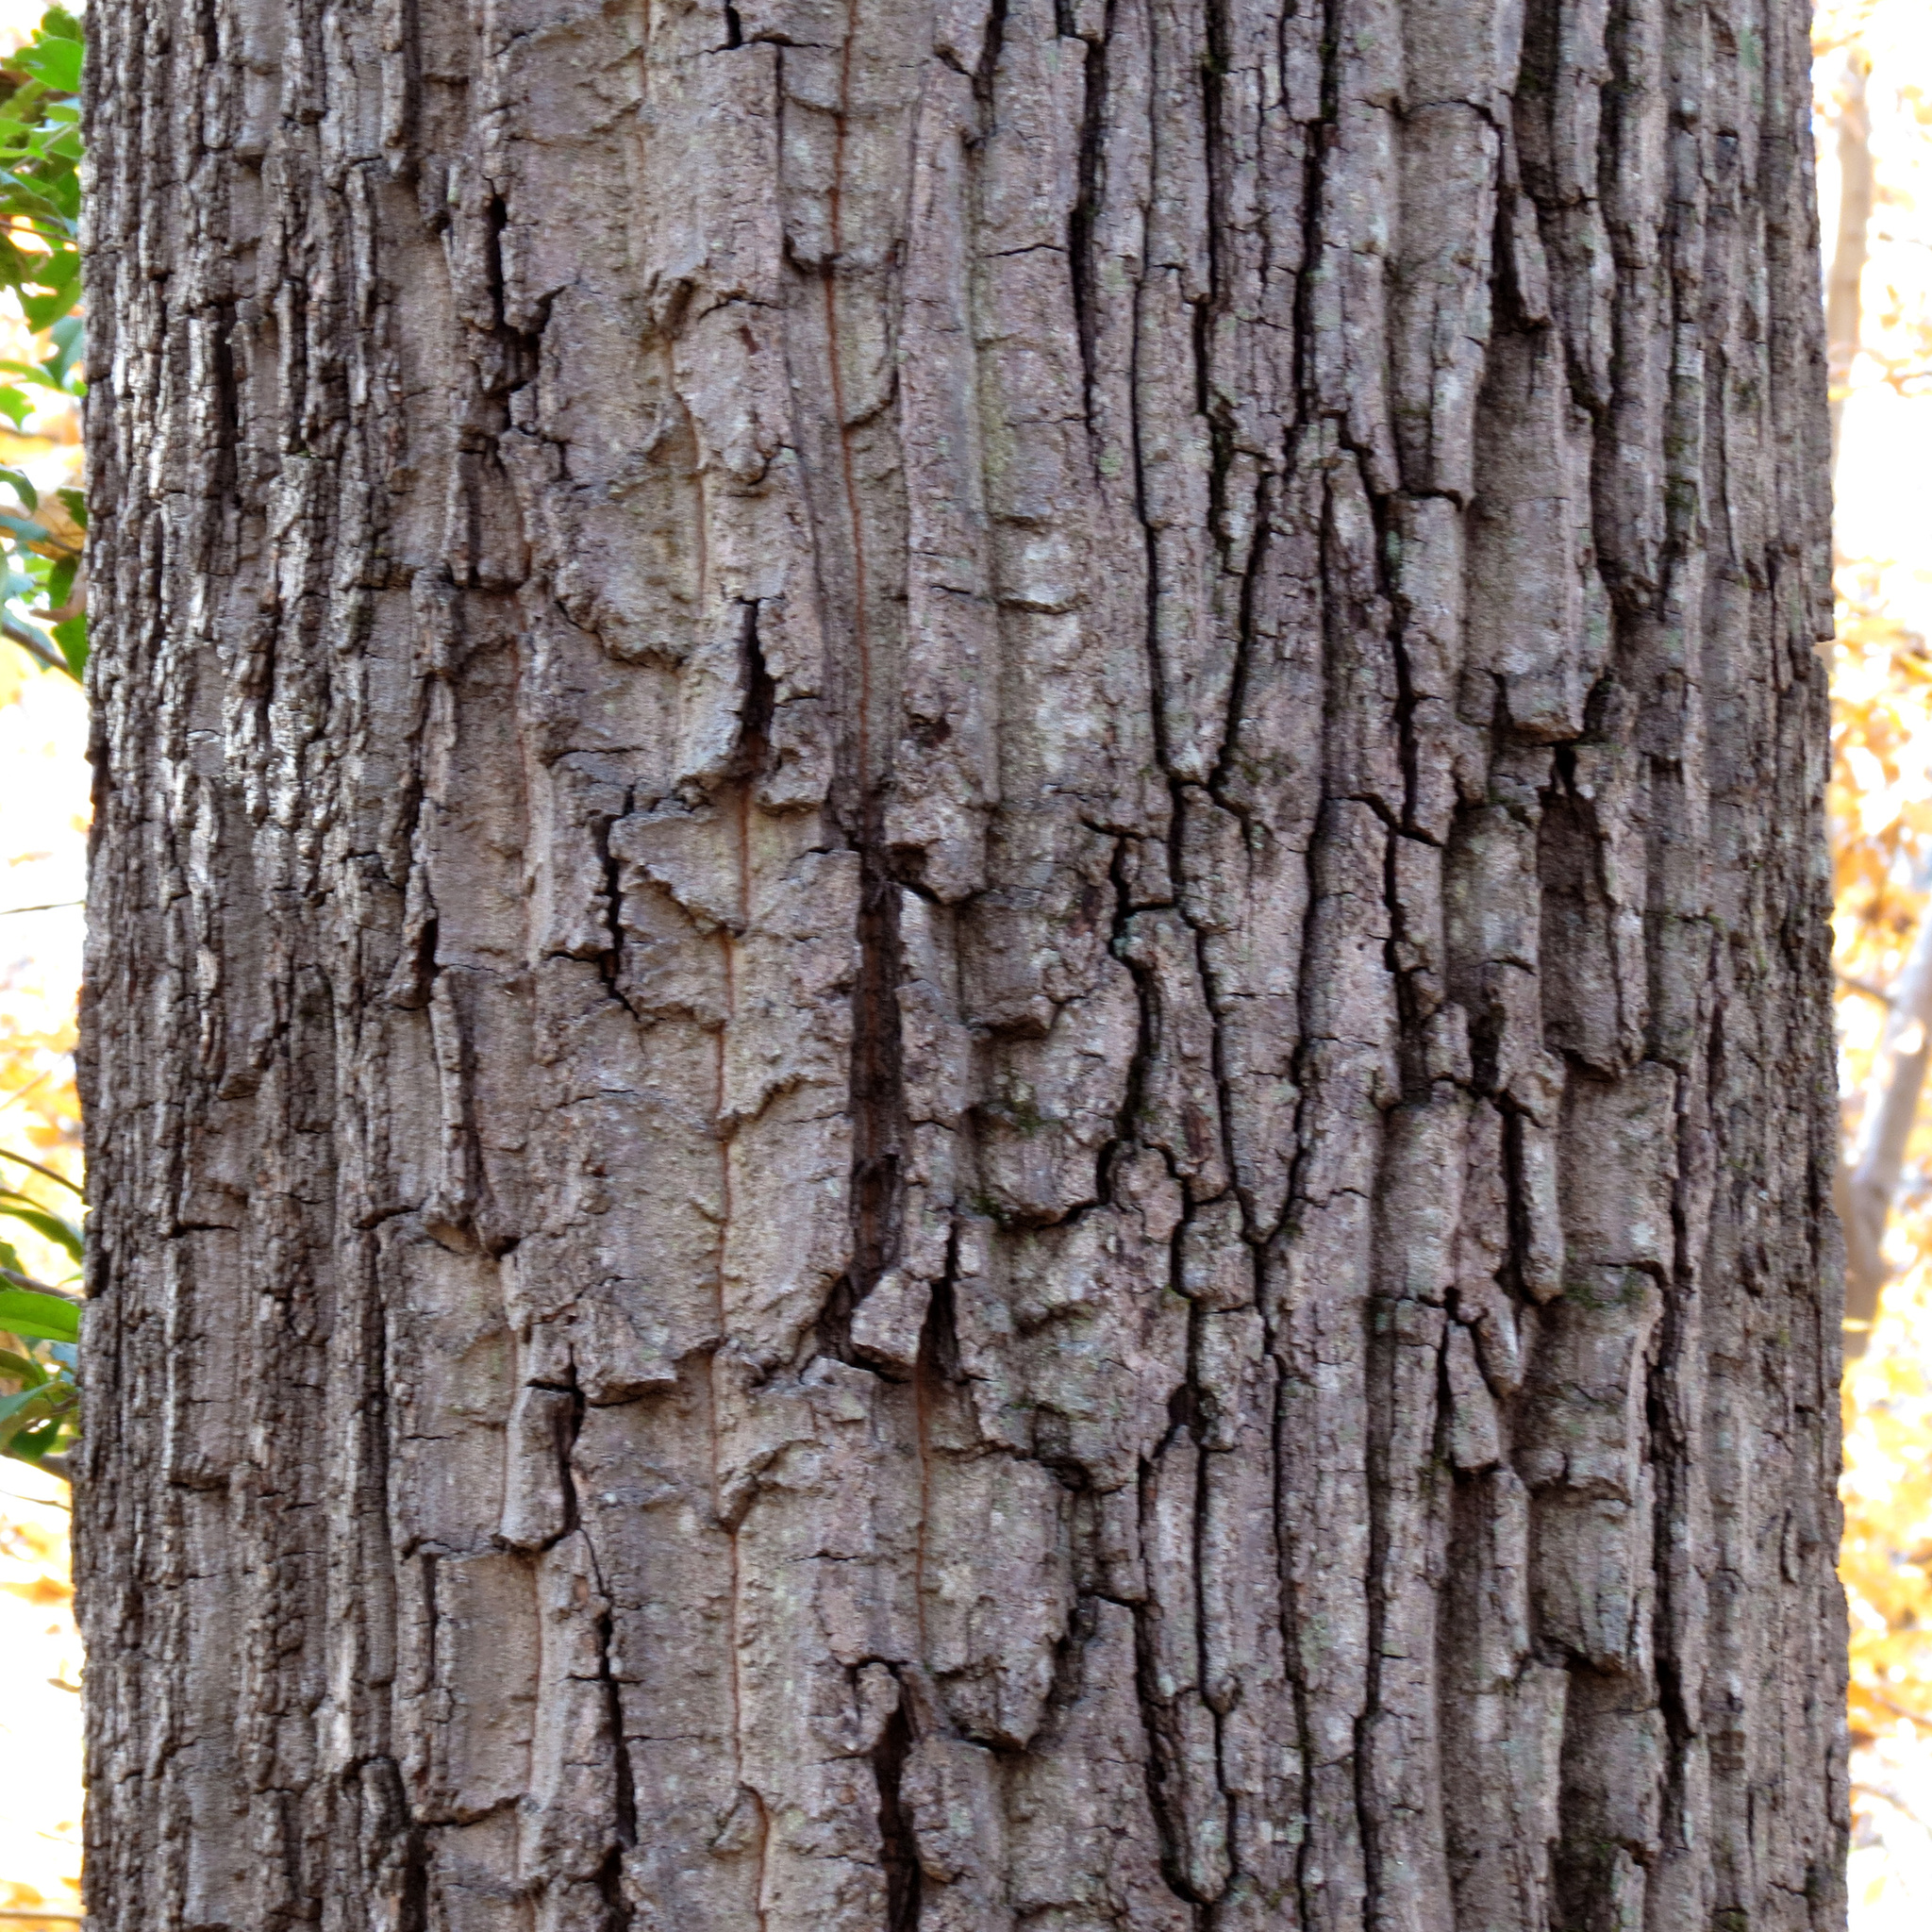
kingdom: Plantae
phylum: Tracheophyta
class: Magnoliopsida
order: Fagales
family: Fagaceae
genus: Quercus
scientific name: Quercus montana
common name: Chestnut oak
